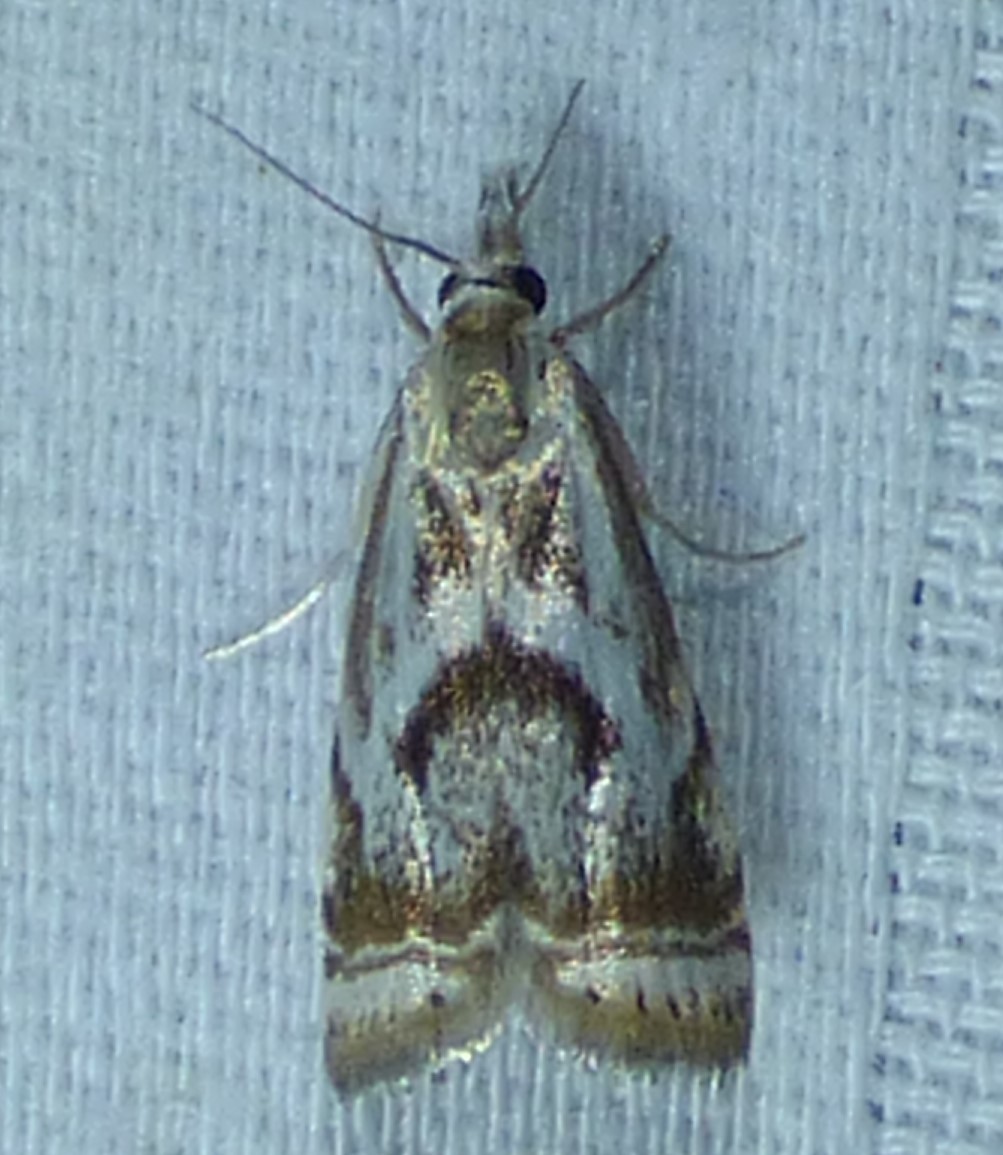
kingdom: Animalia
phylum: Arthropoda
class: Insecta
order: Lepidoptera
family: Crambidae
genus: Microcrambus
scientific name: Microcrambus elegans
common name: Elegant grass-veneer
